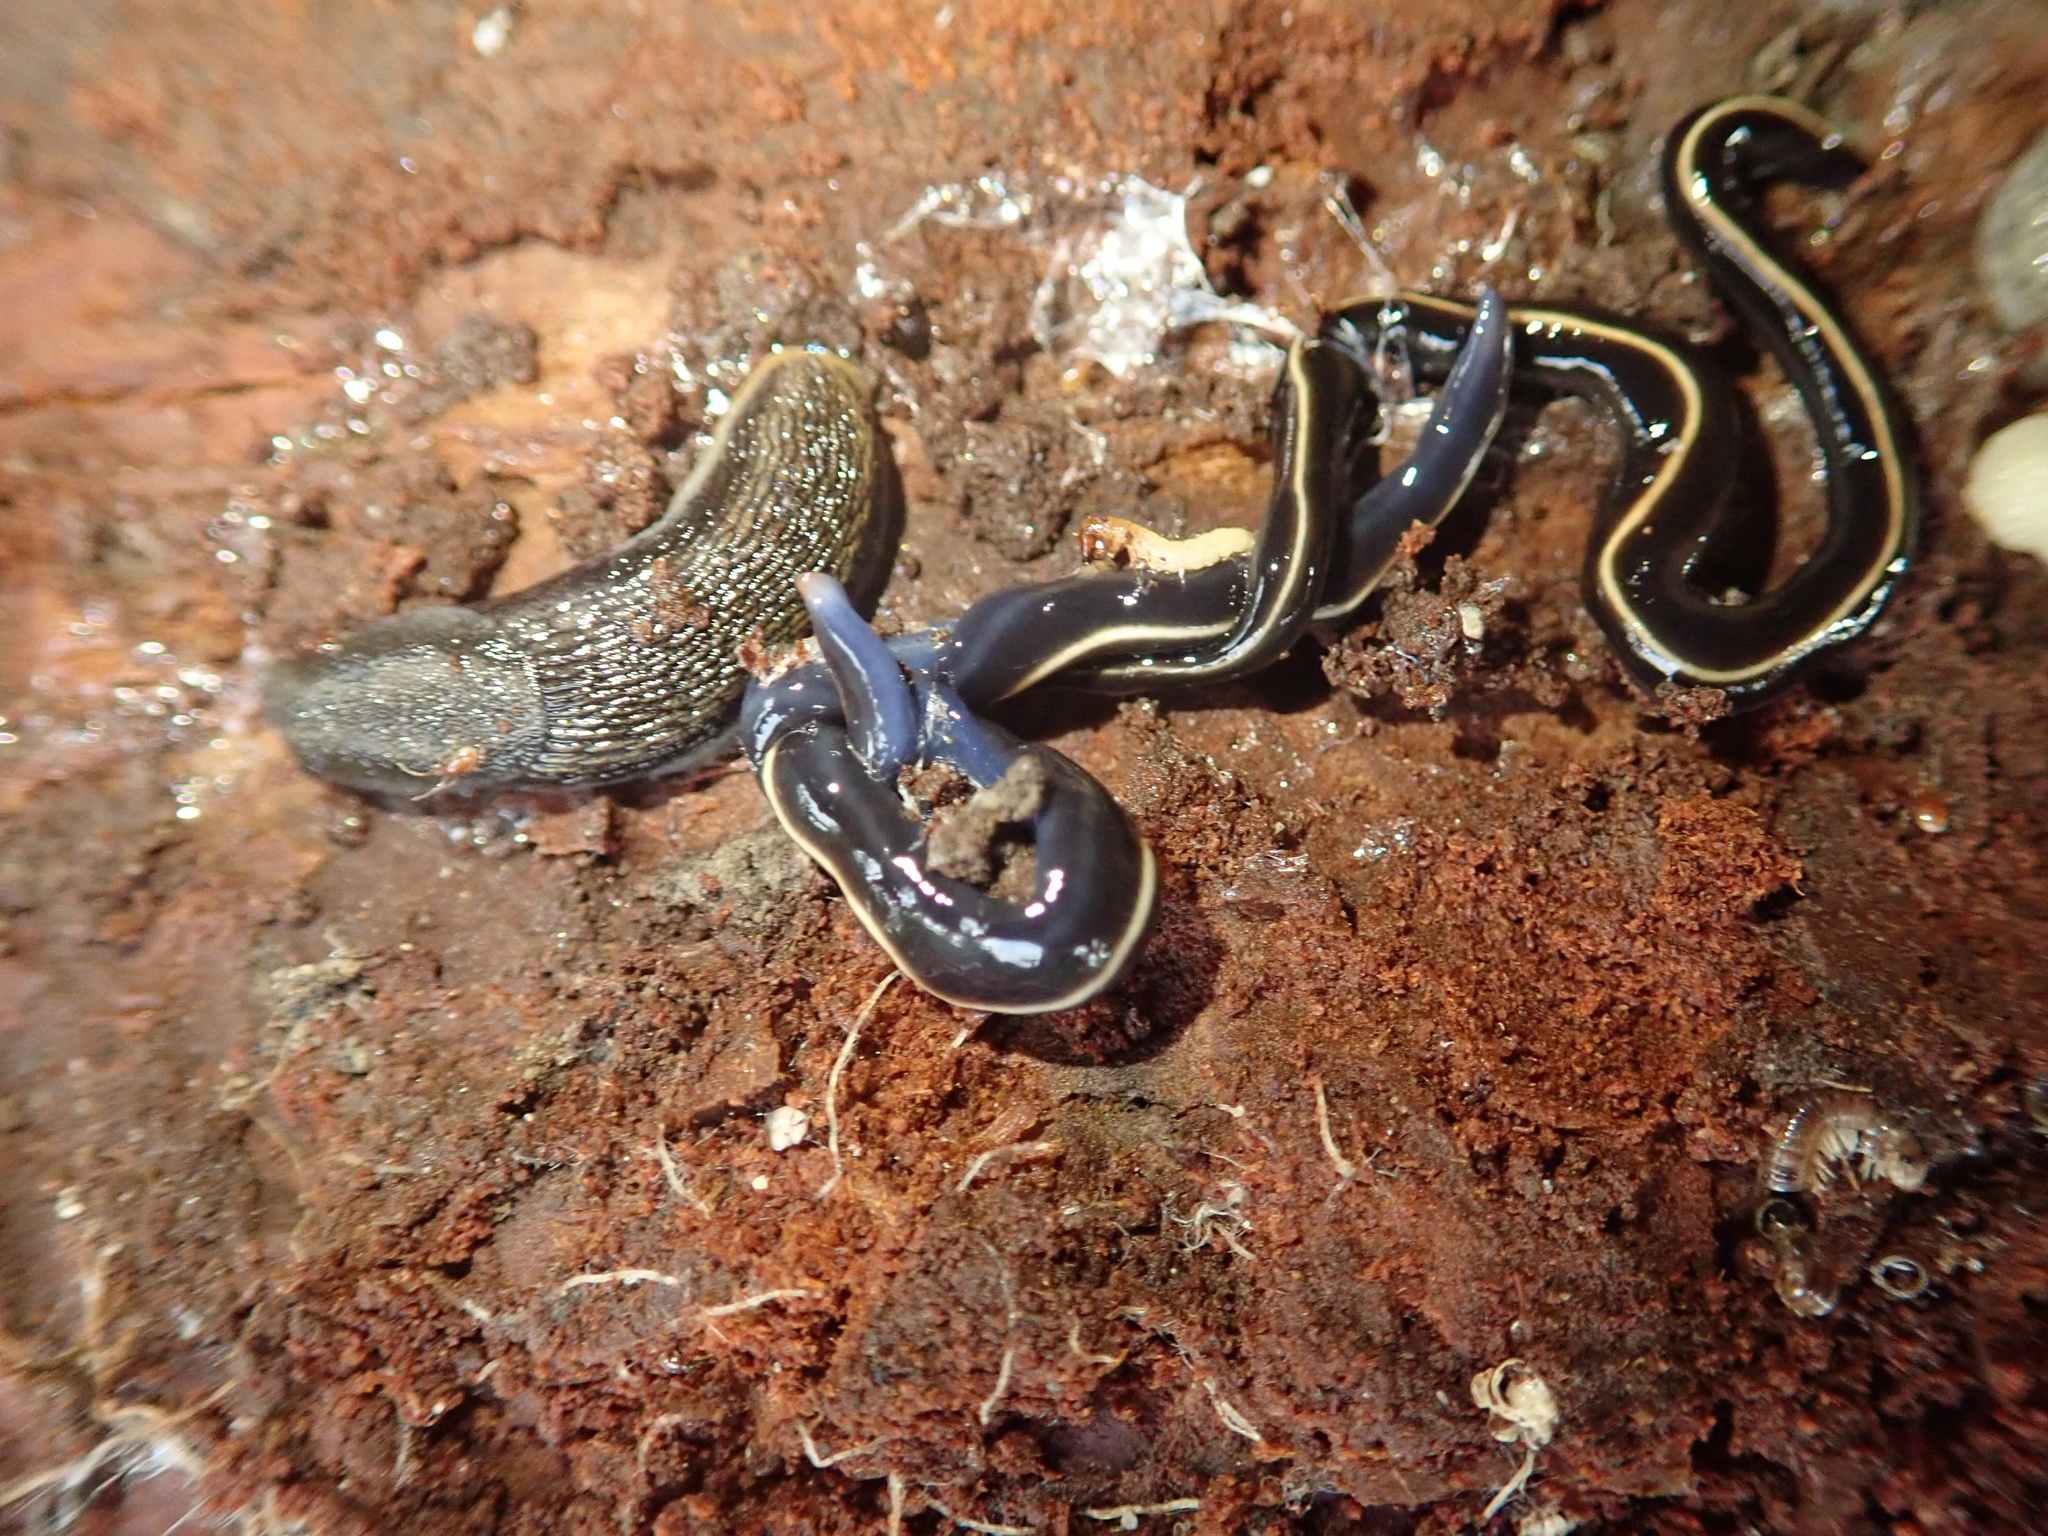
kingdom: Animalia
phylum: Platyhelminthes
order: Tricladida
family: Geoplanidae
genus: Caenoplana
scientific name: Caenoplana coerulea
